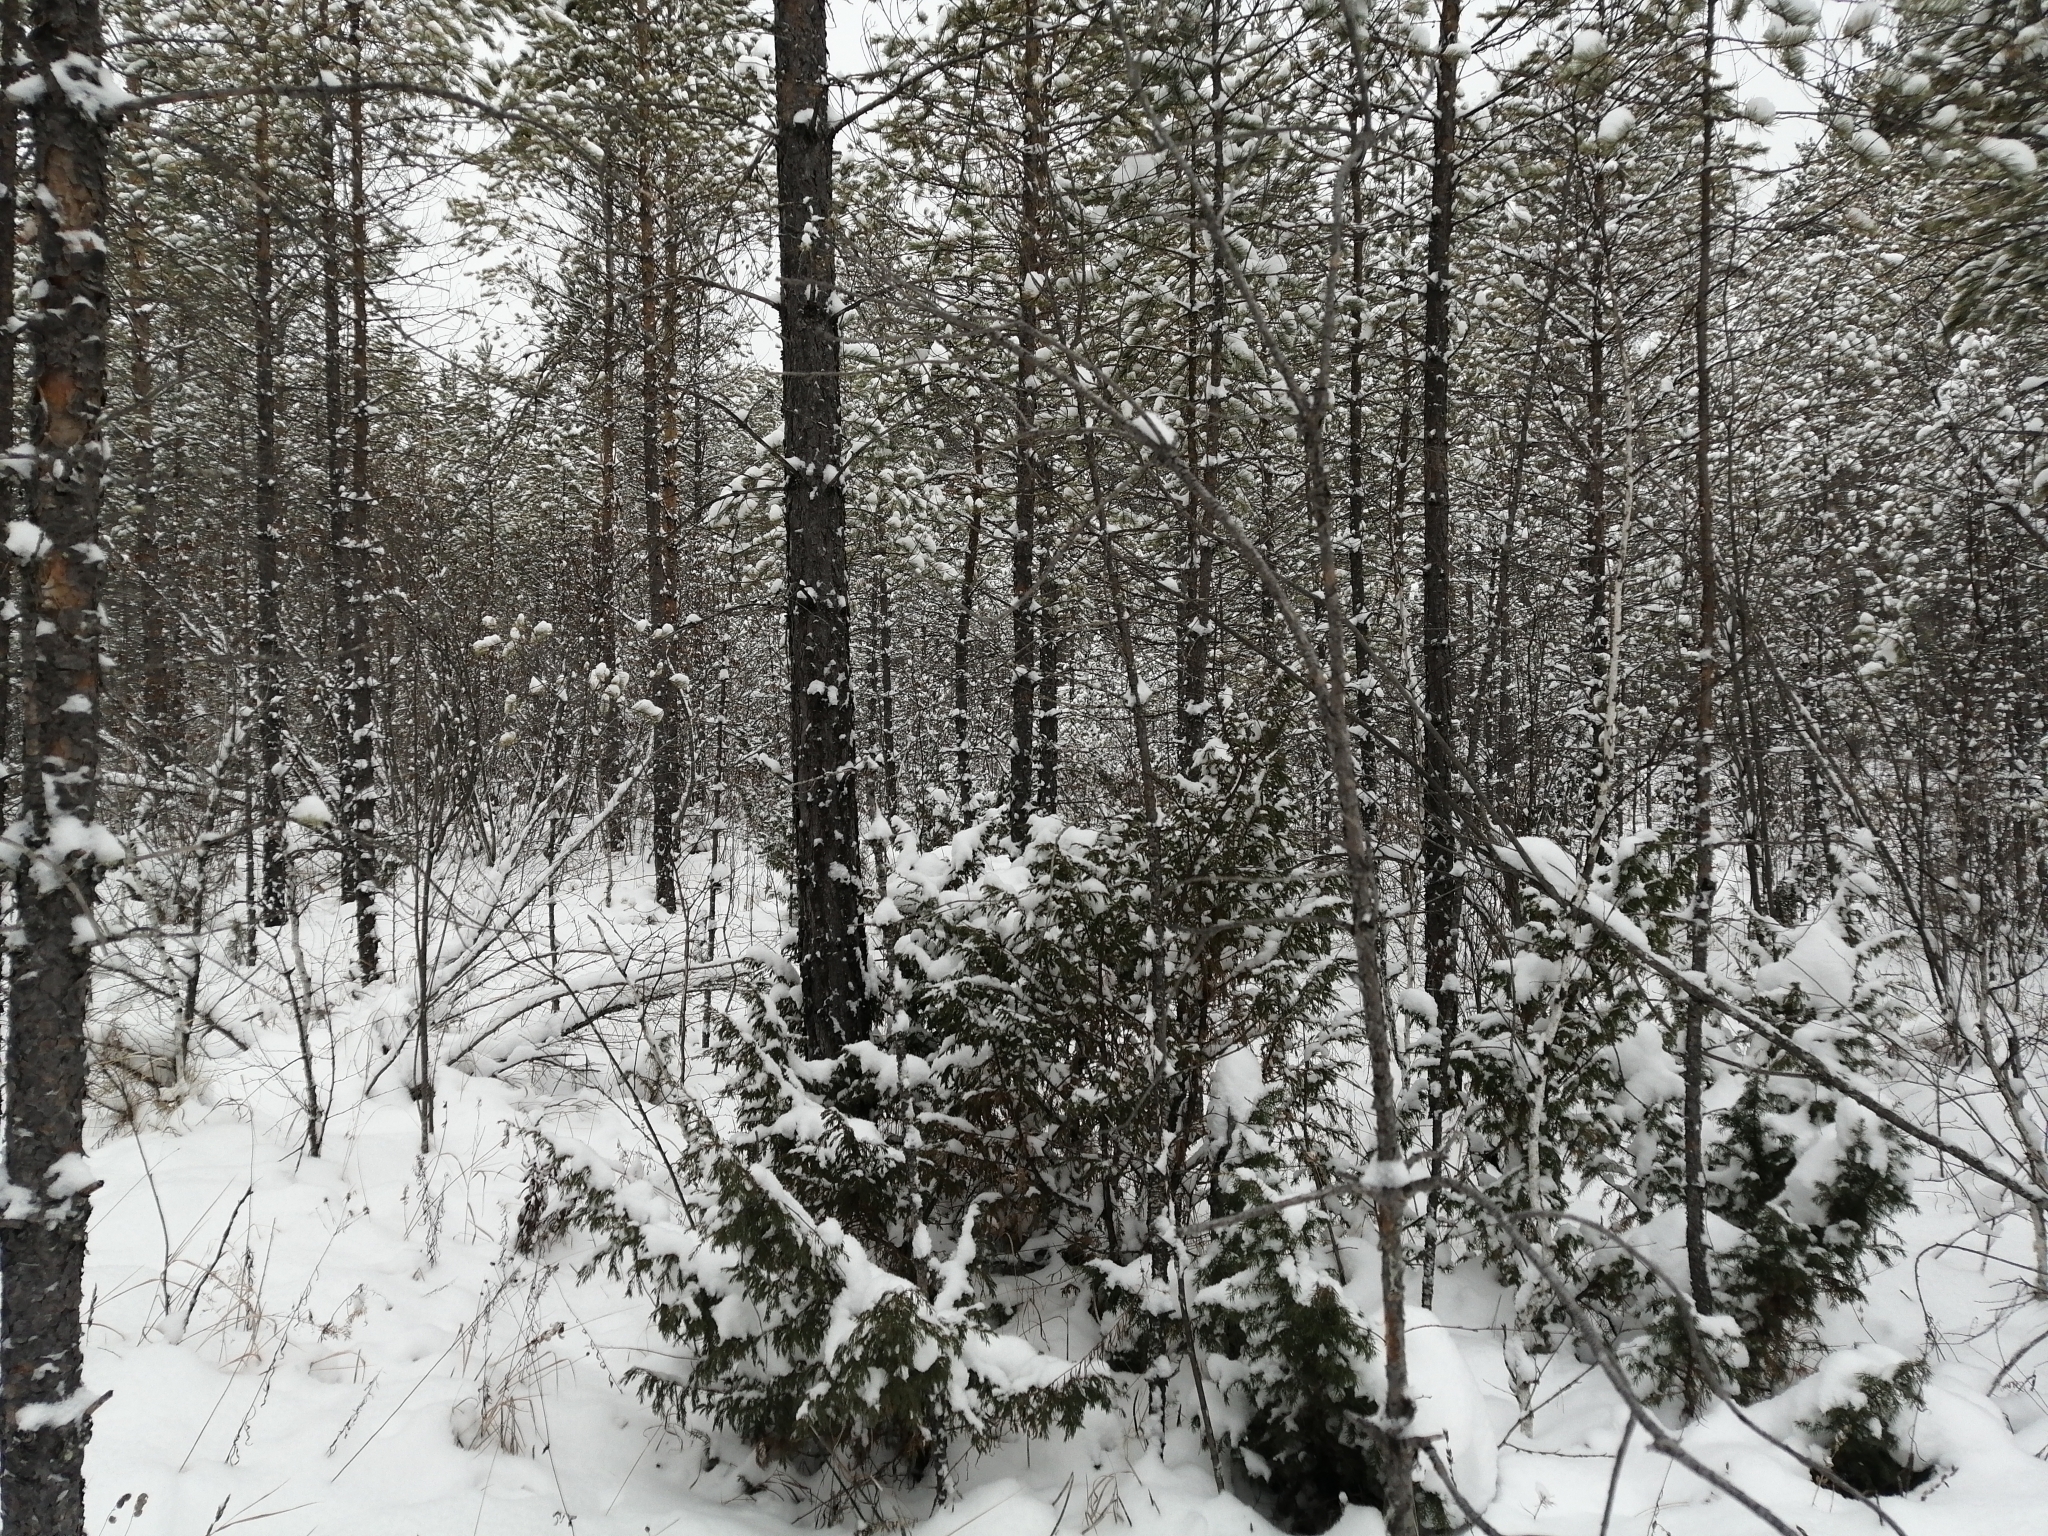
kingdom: Plantae
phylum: Tracheophyta
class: Pinopsida
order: Pinales
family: Cupressaceae
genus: Juniperus
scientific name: Juniperus communis
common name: Common juniper
